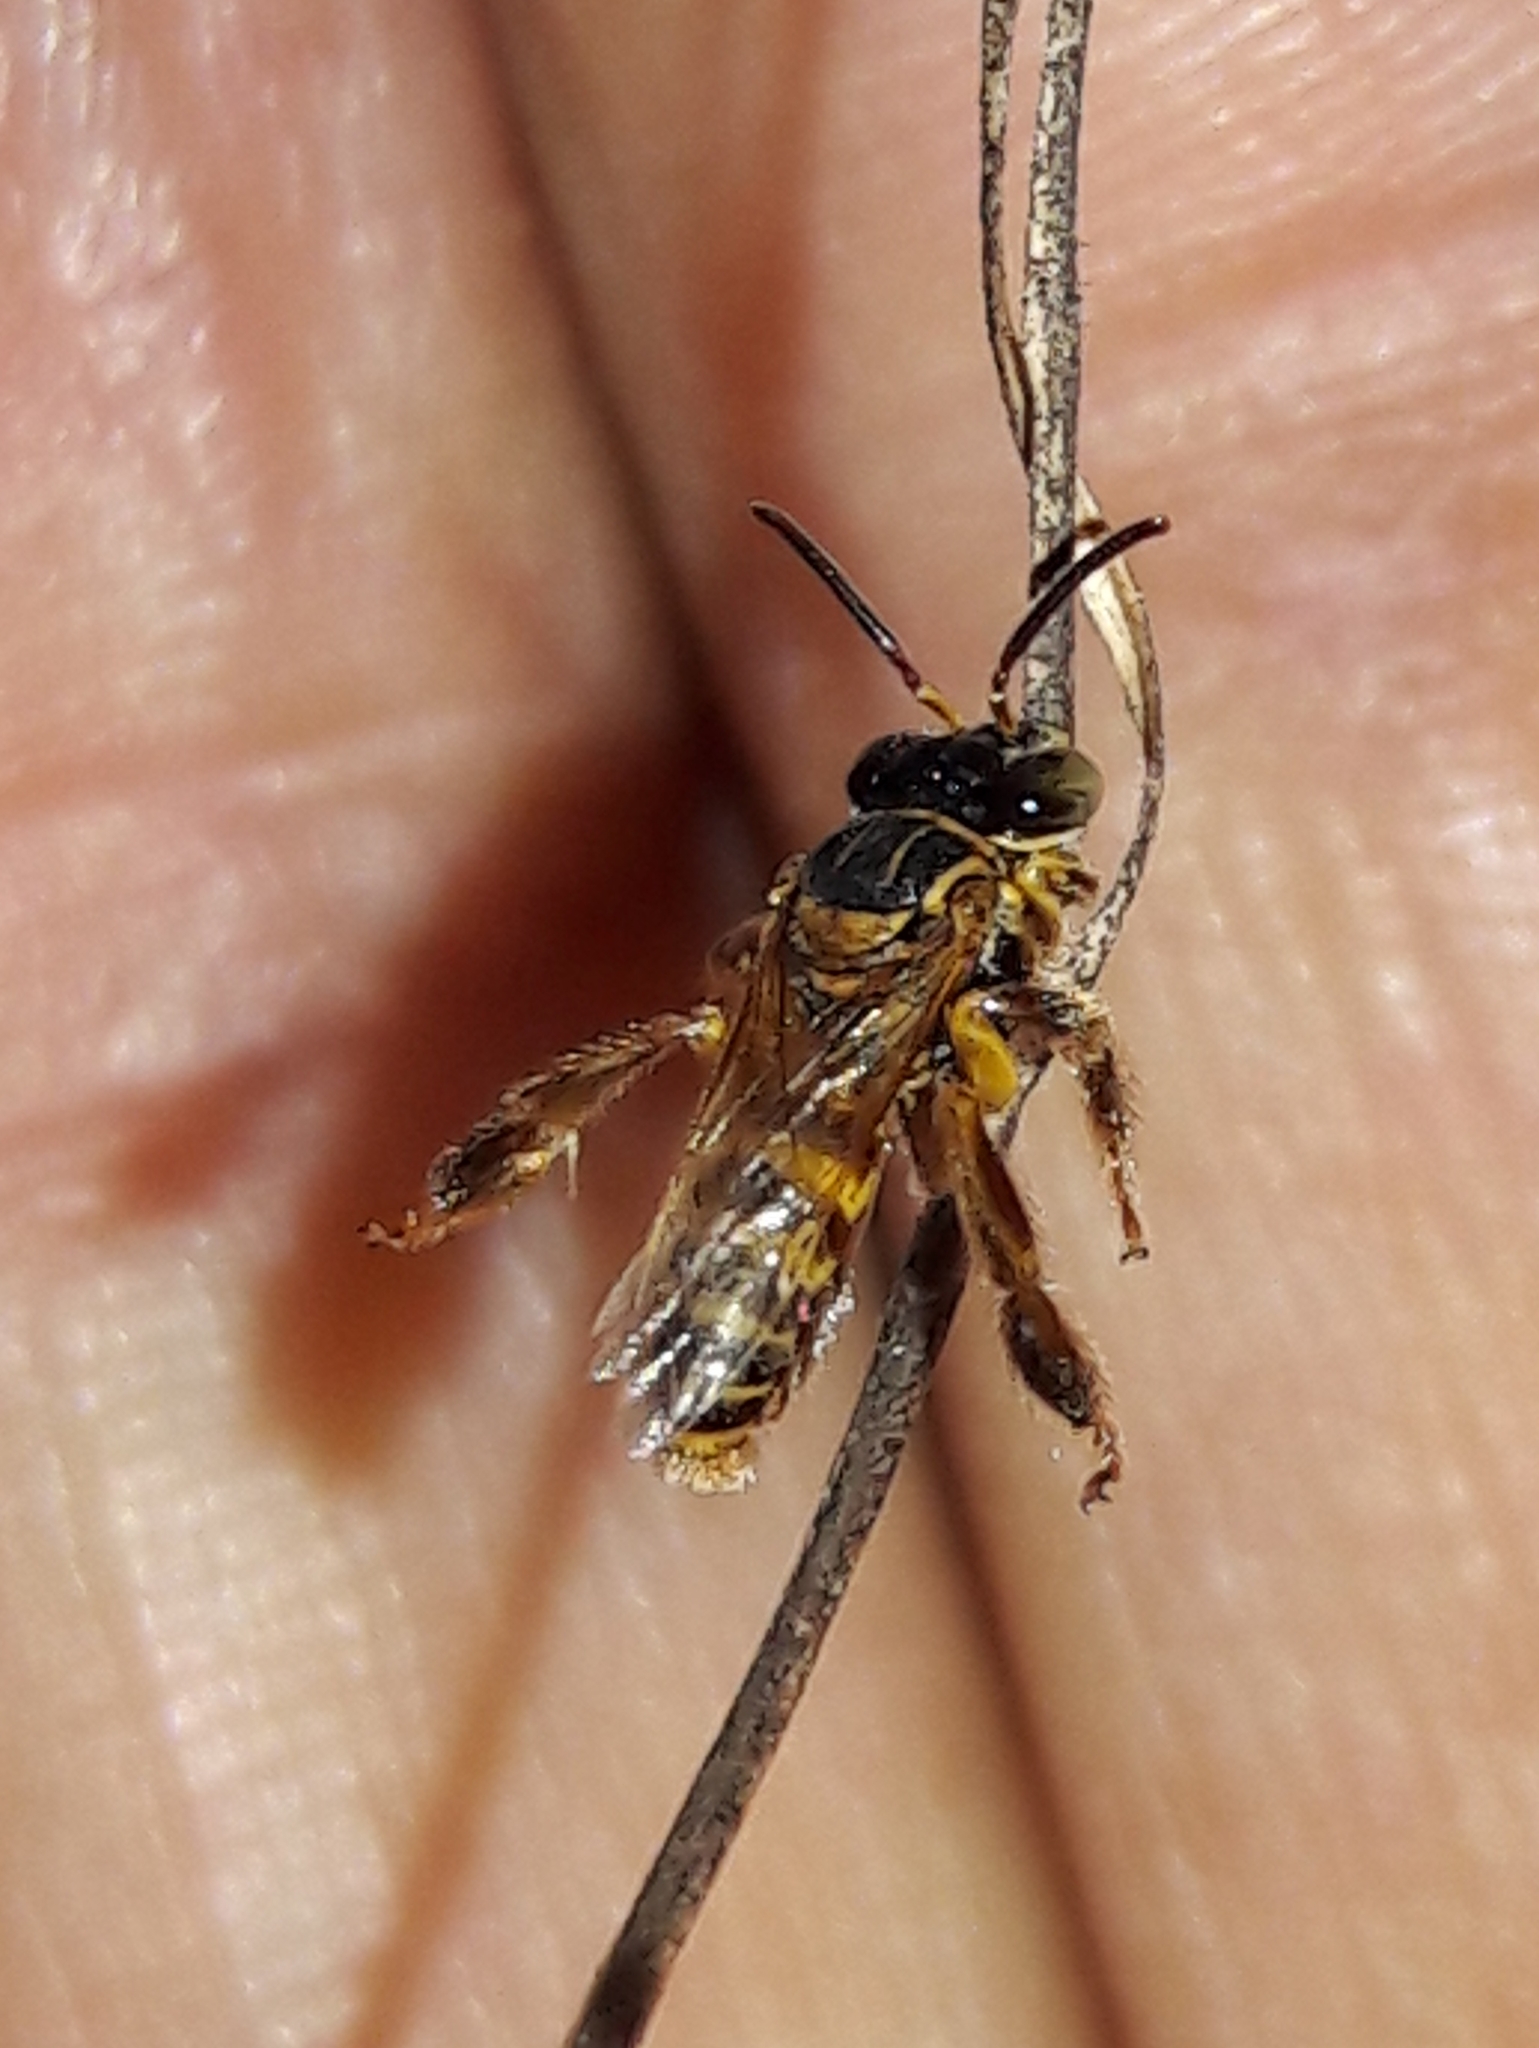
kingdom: Animalia
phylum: Arthropoda
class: Insecta
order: Hymenoptera
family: Apidae
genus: Paratetrapedia
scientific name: Paratetrapedia flavolineata
